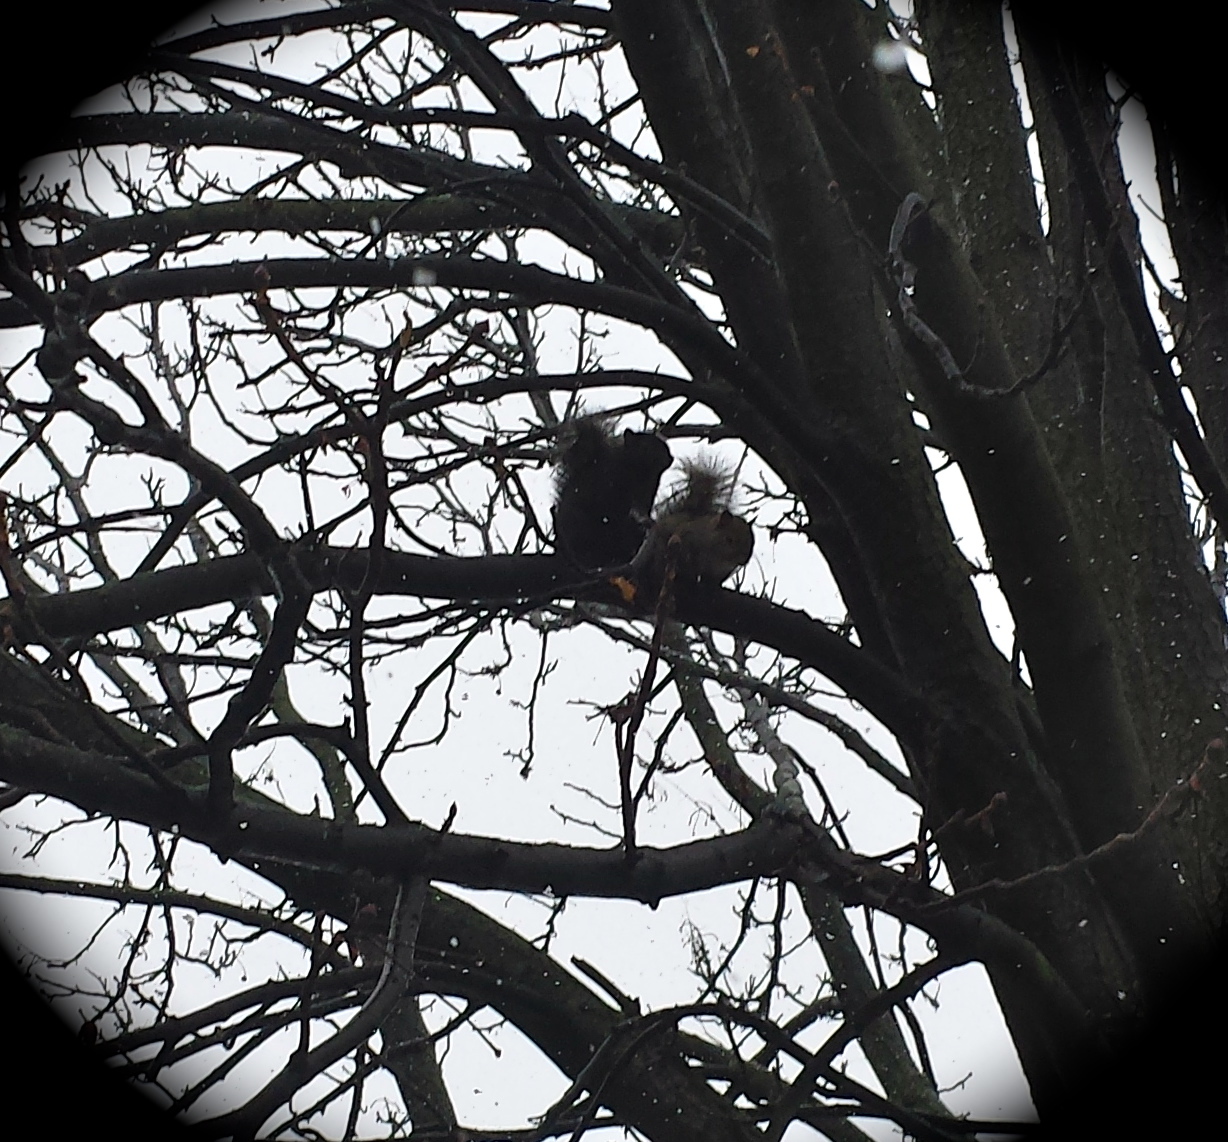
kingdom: Animalia
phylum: Chordata
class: Mammalia
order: Rodentia
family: Sciuridae
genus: Sciurus
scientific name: Sciurus carolinensis
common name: Eastern gray squirrel
